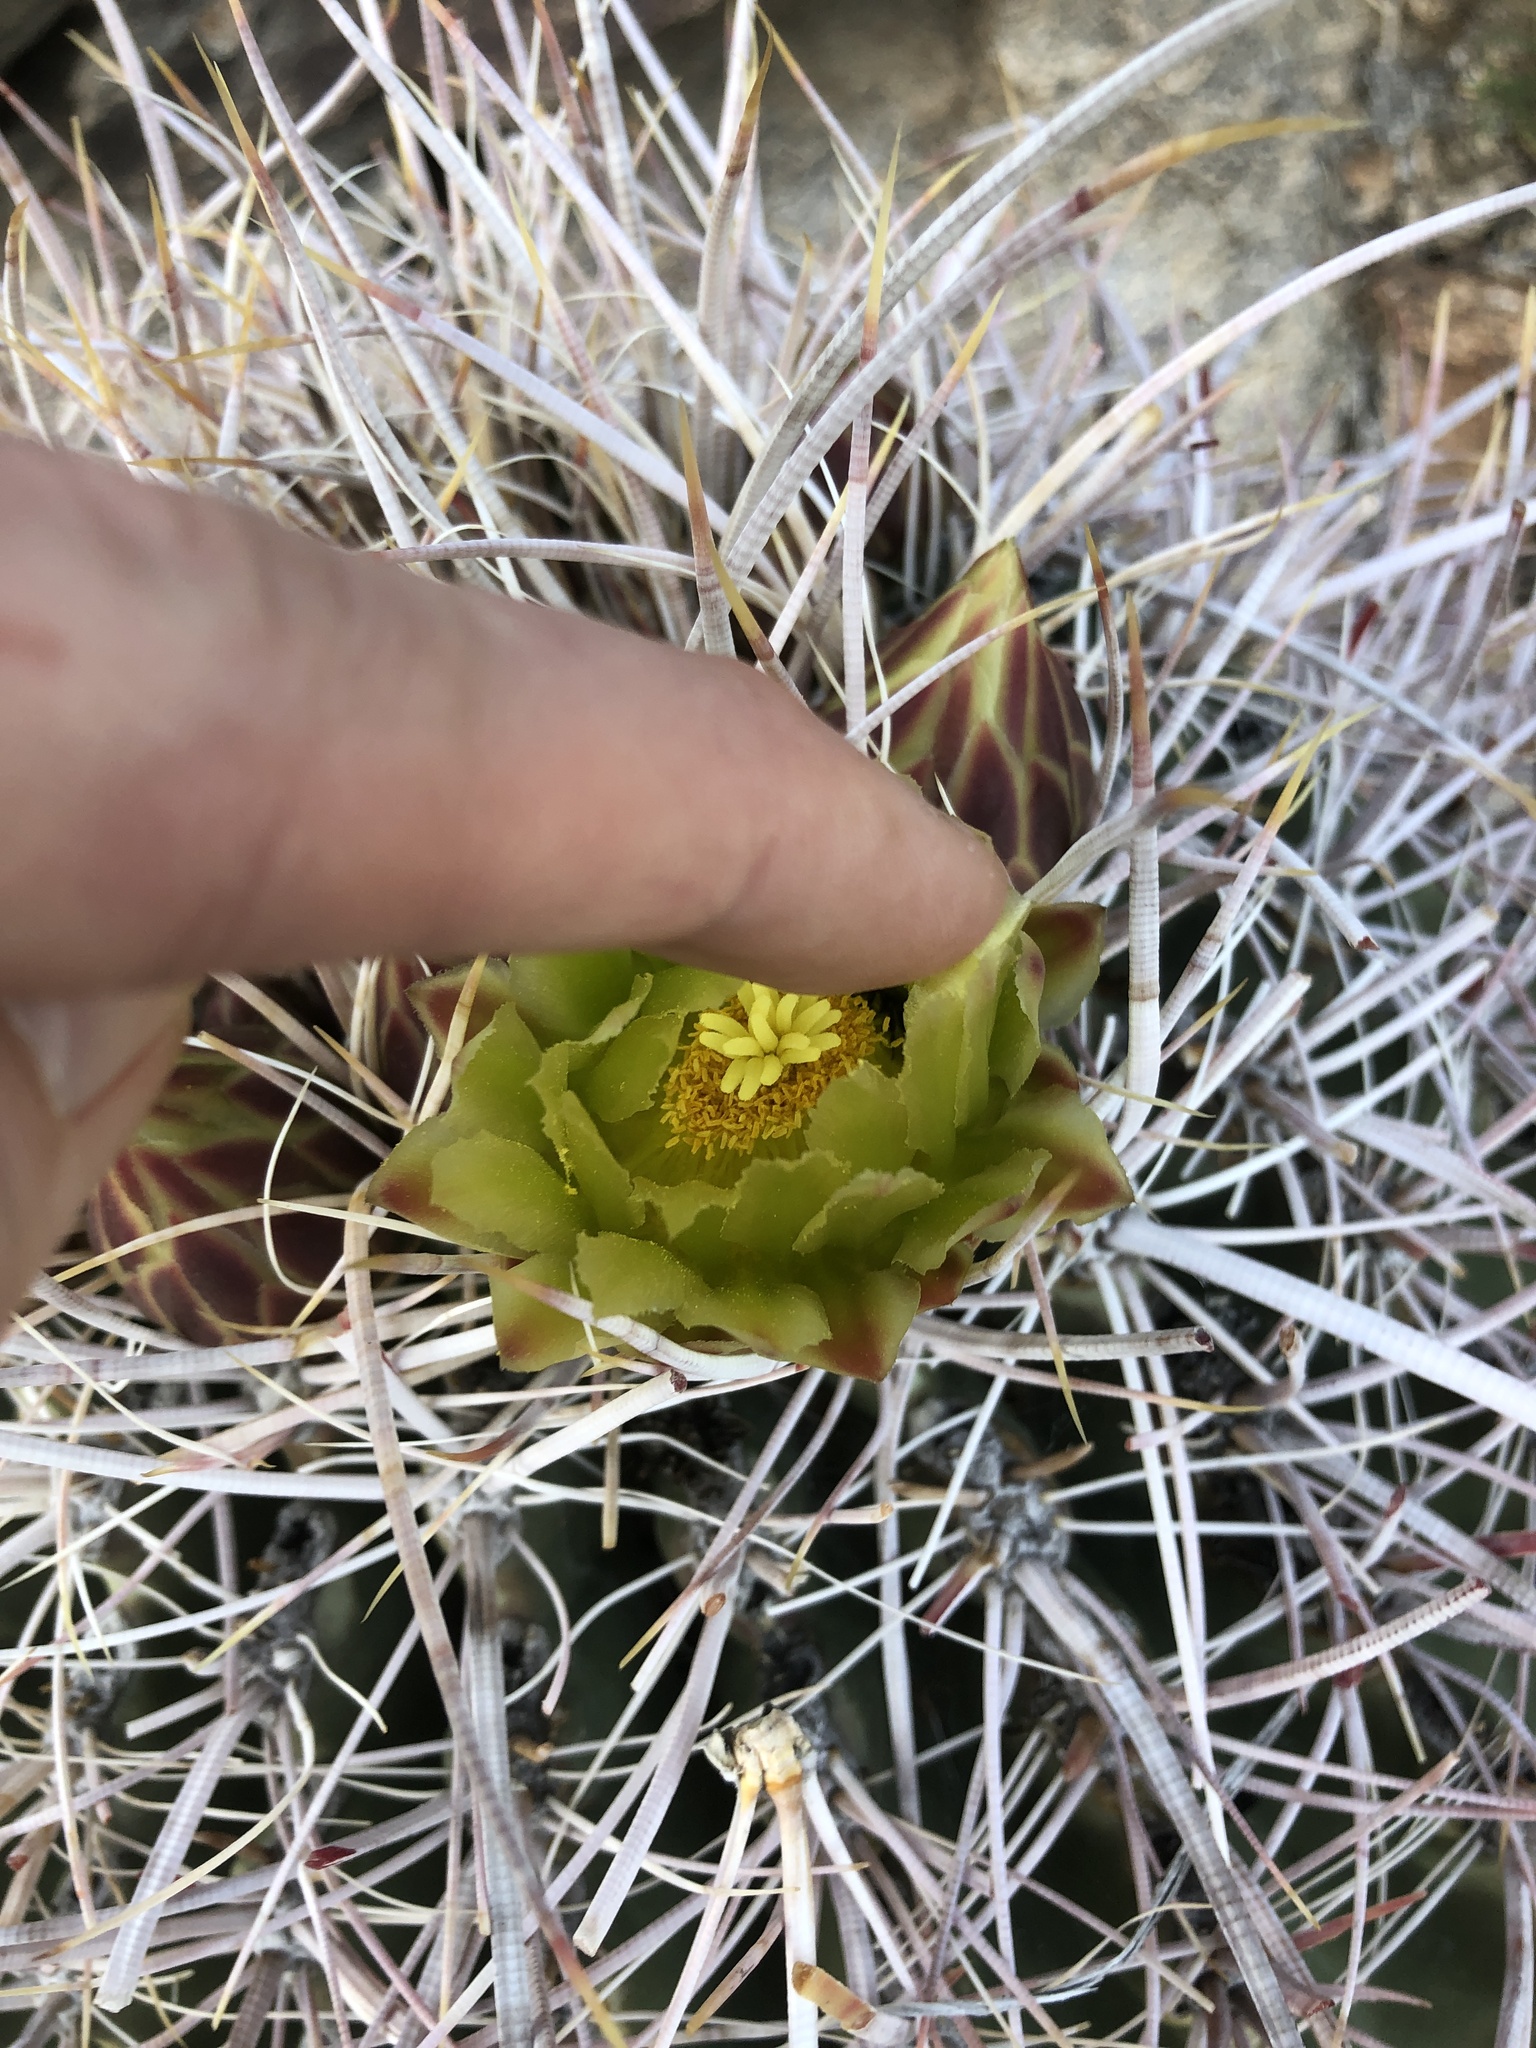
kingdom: Plantae
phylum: Tracheophyta
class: Magnoliopsida
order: Caryophyllales
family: Cactaceae
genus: Ferocactus
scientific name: Ferocactus cylindraceus
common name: California barrel cactus
